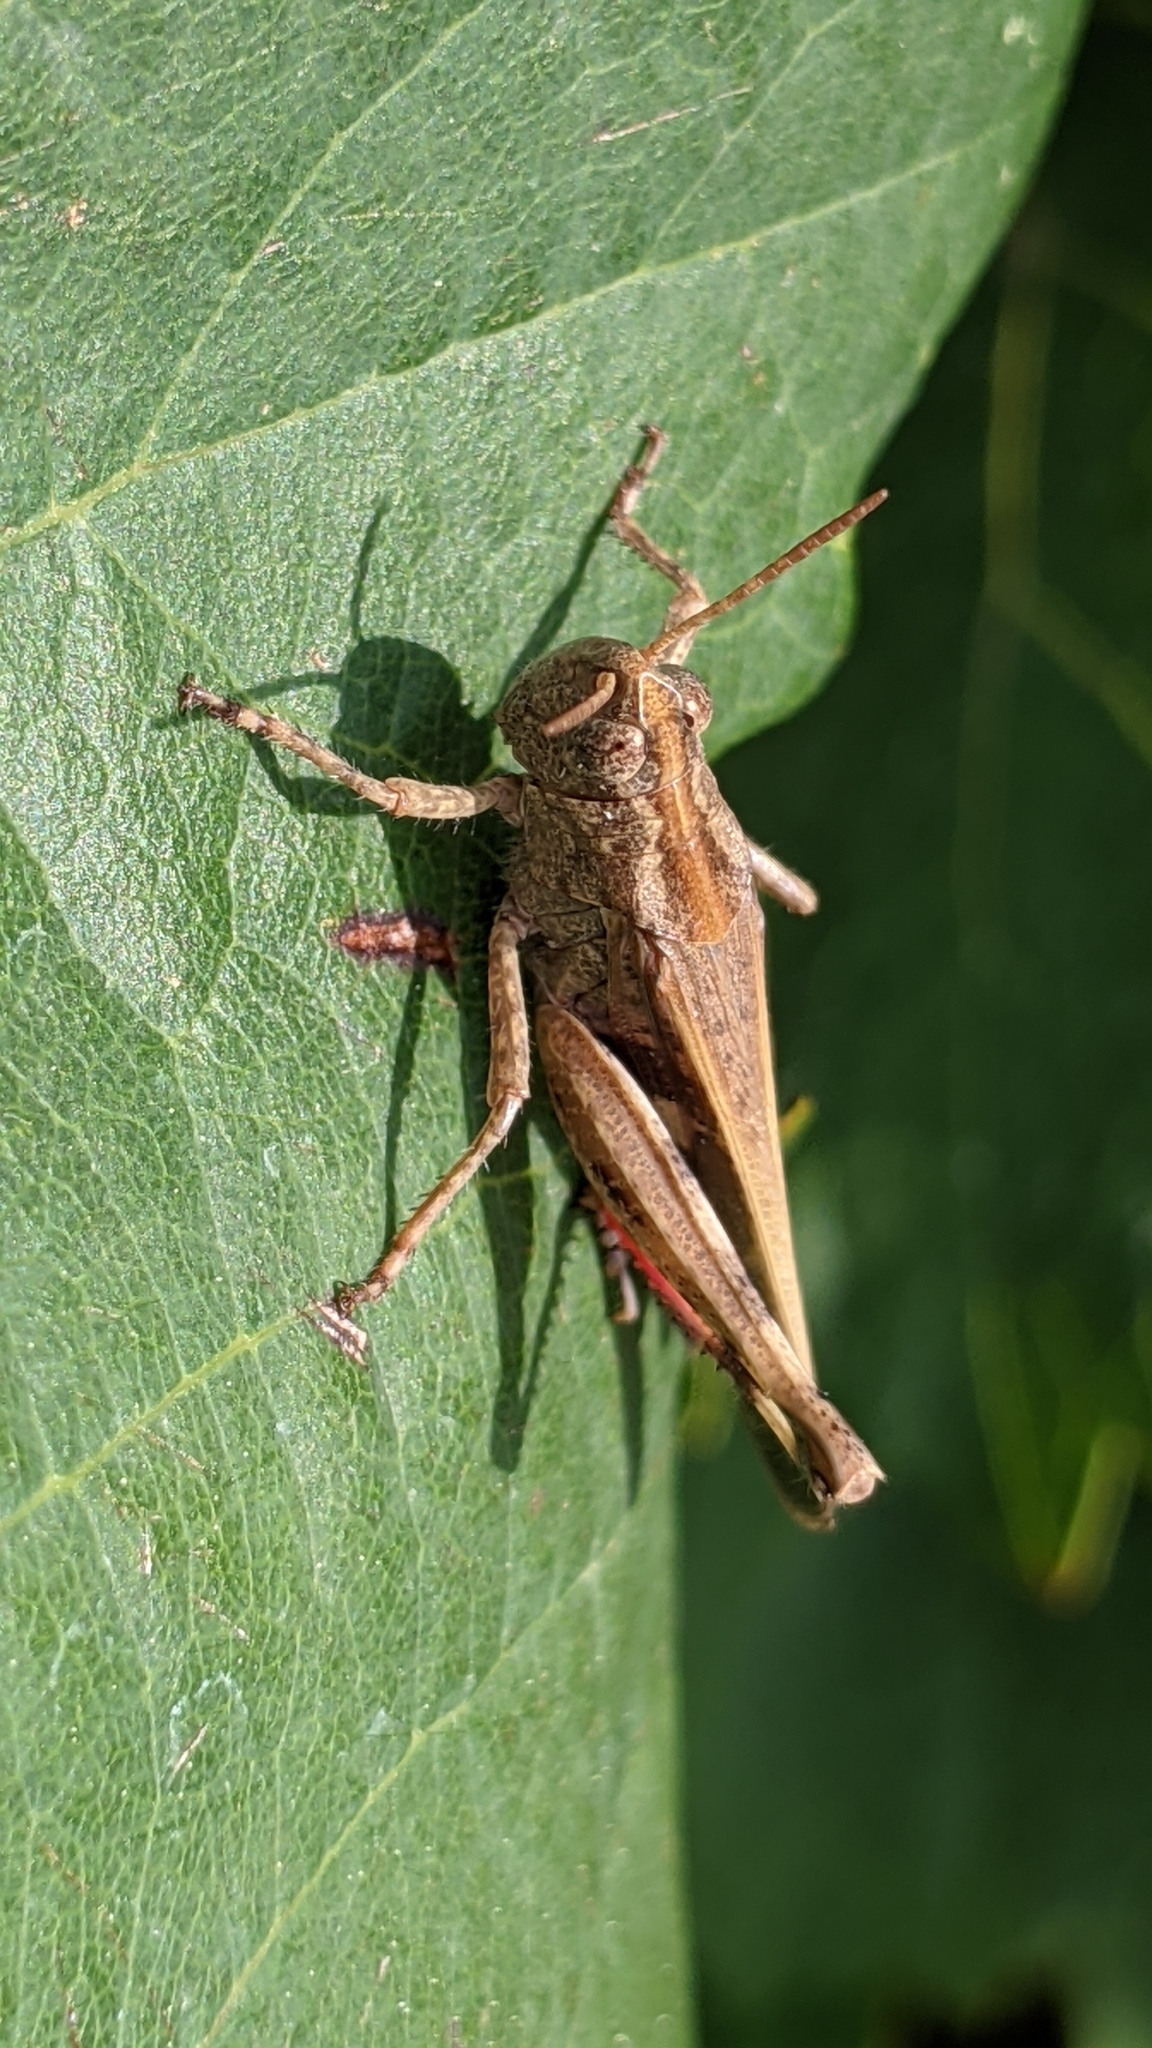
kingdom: Animalia
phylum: Arthropoda
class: Insecta
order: Orthoptera
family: Acrididae
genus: Aiolopus
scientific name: Aiolopus strepens
